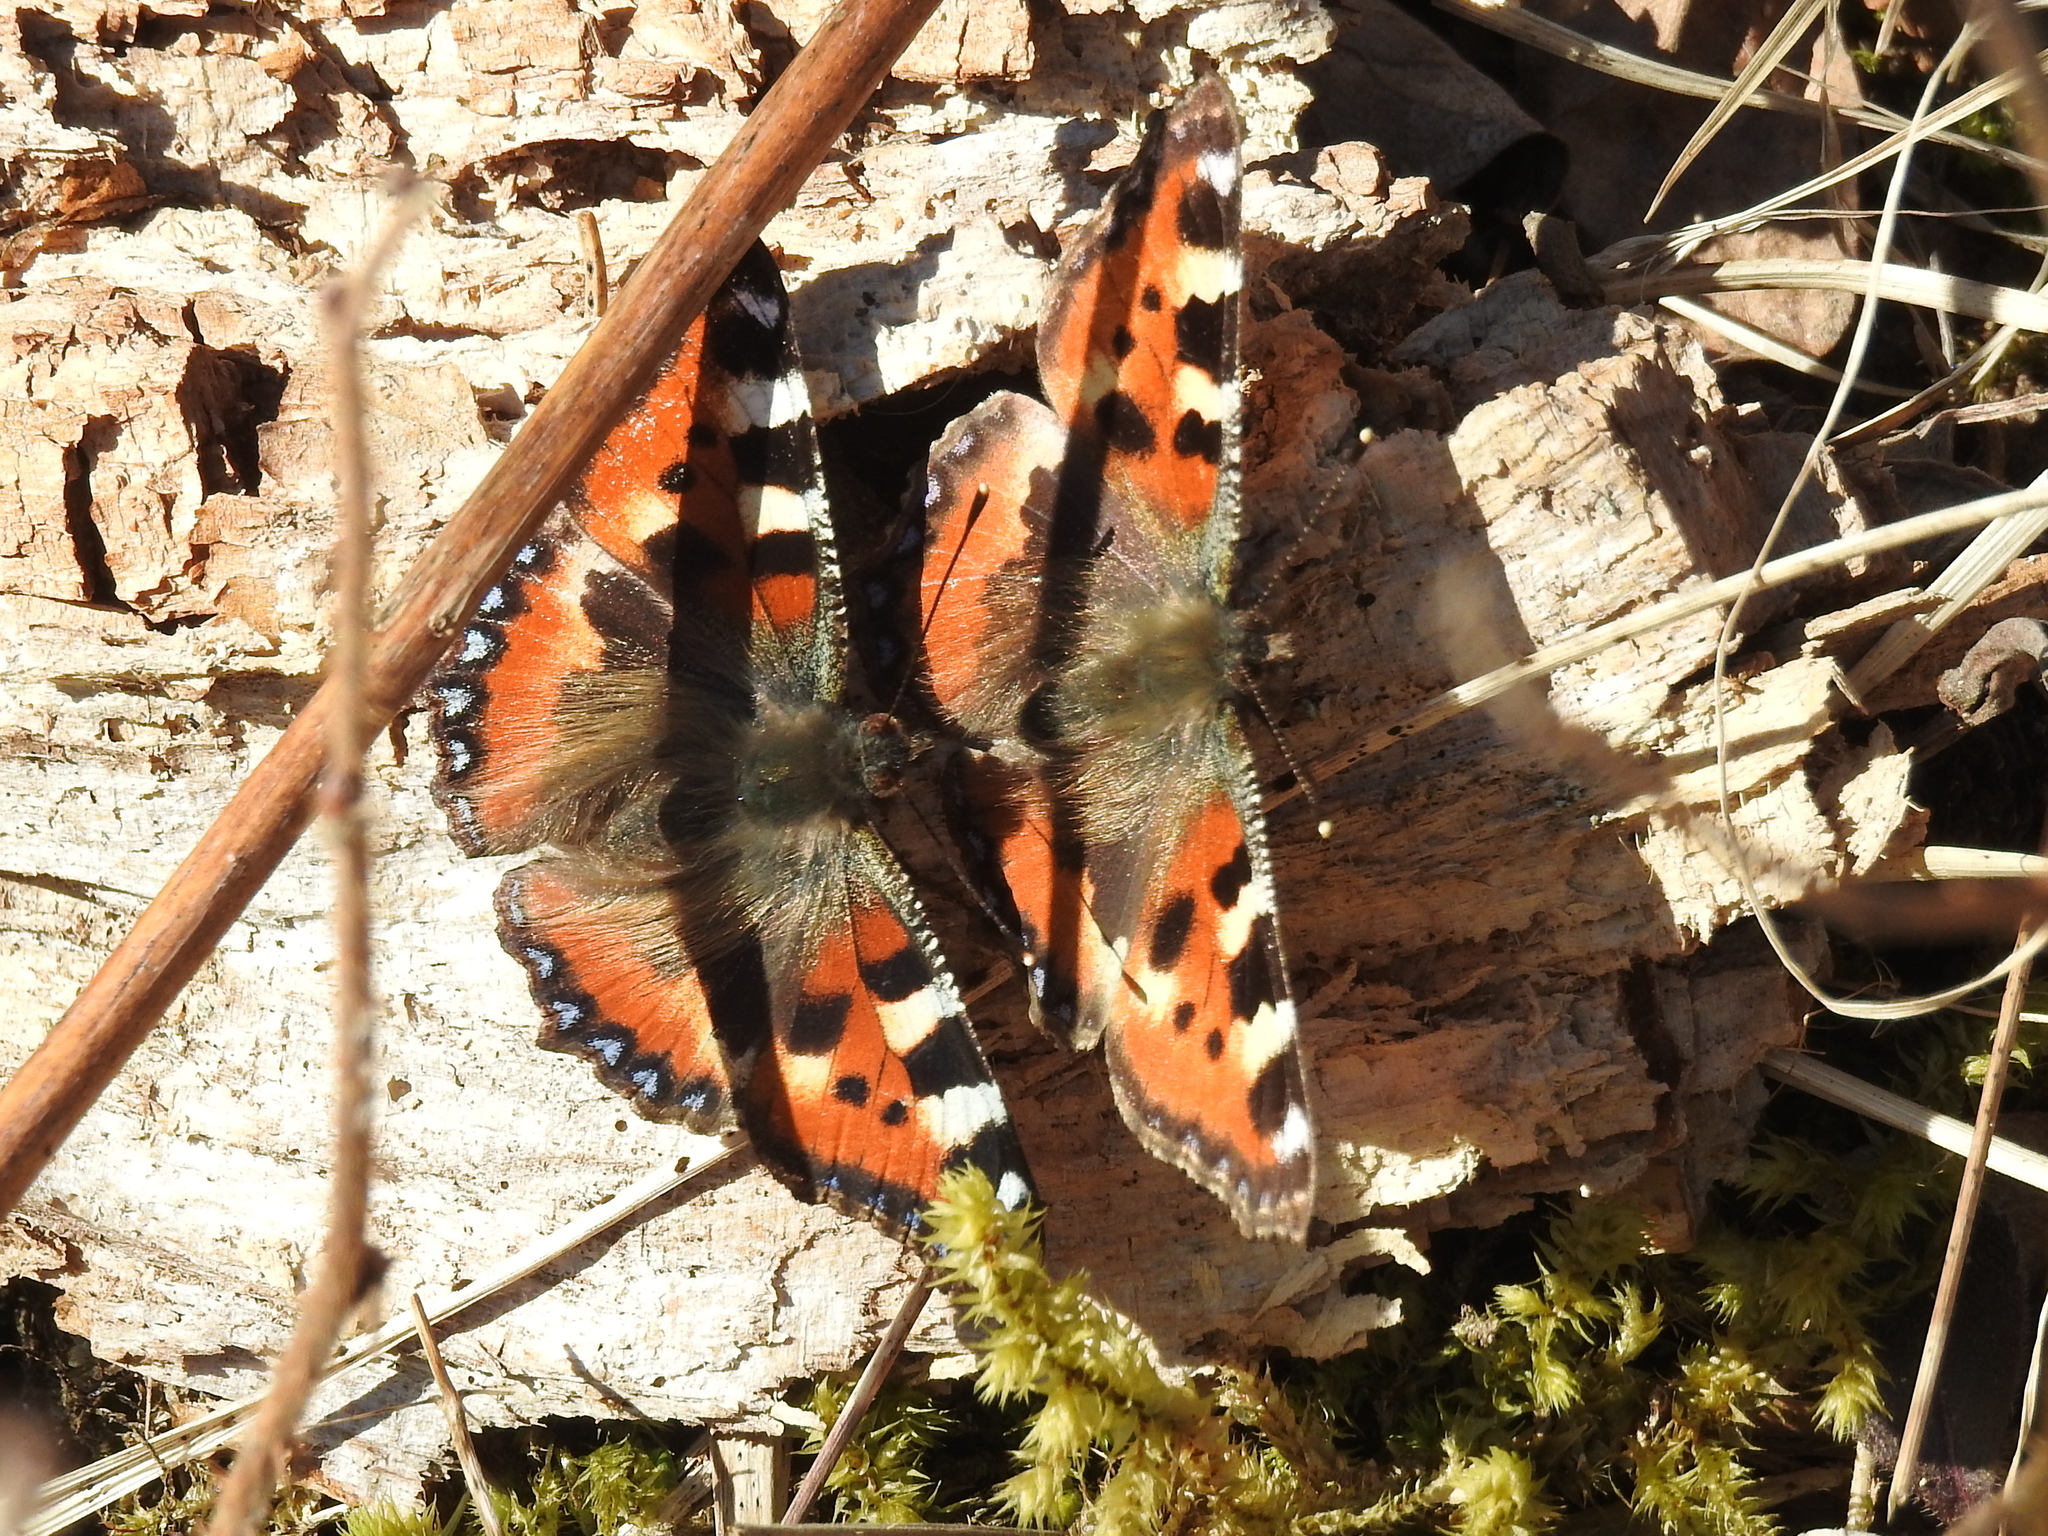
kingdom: Animalia
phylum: Arthropoda
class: Insecta
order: Lepidoptera
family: Nymphalidae
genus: Aglais
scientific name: Aglais urticae
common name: Small tortoiseshell
